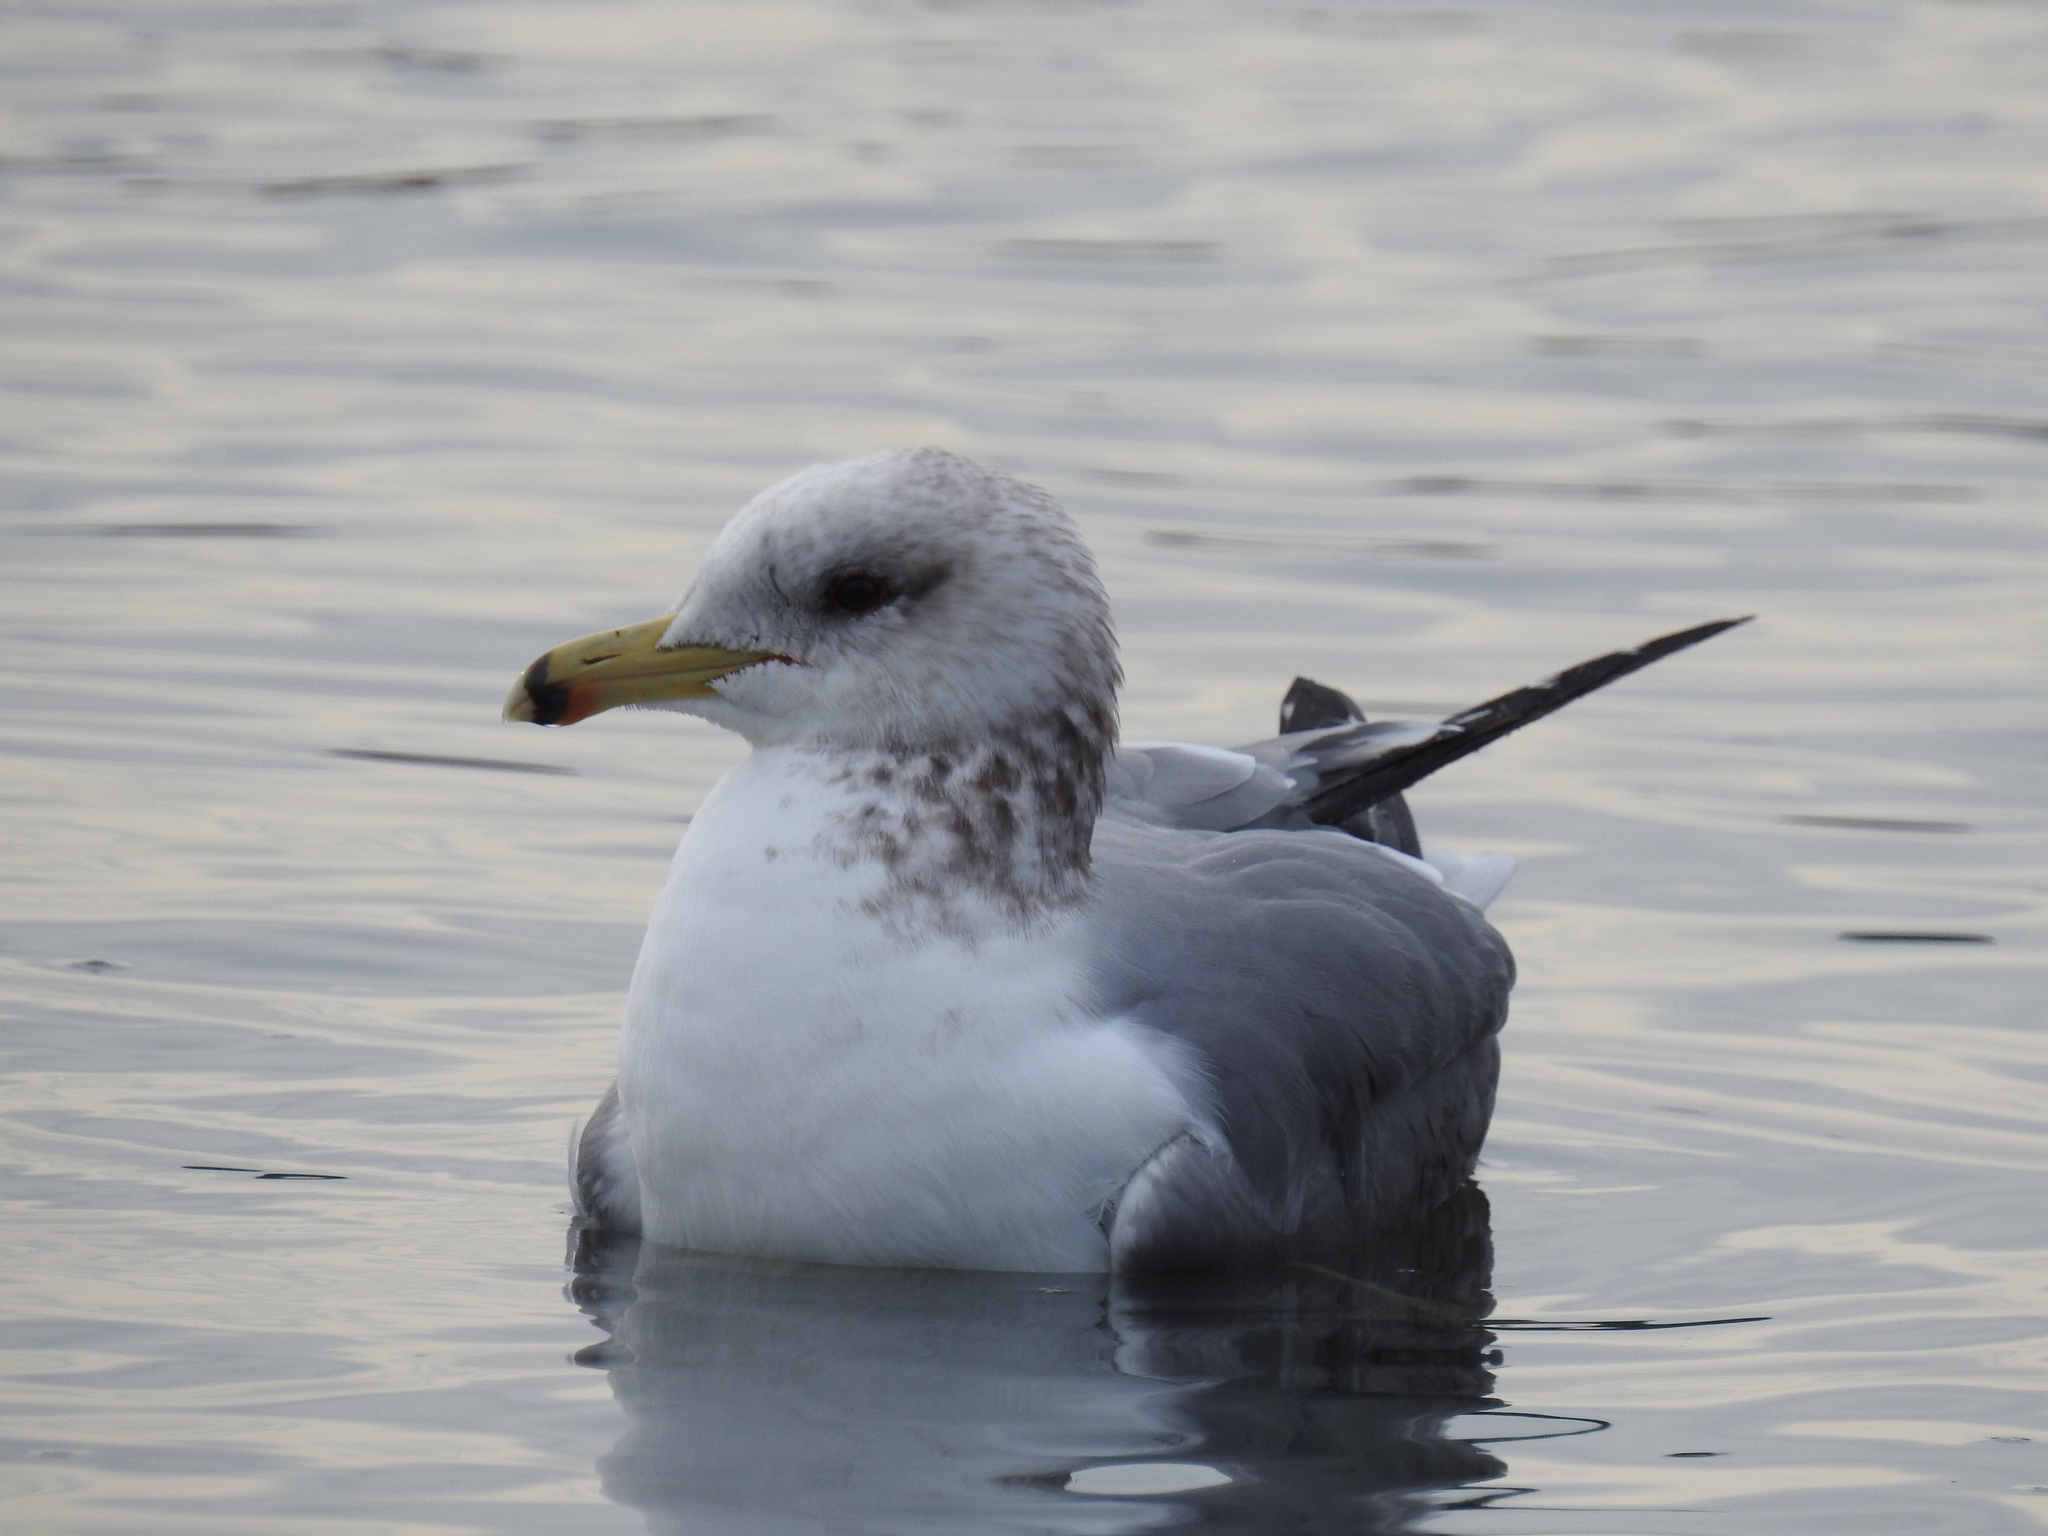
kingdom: Animalia
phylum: Chordata
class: Aves
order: Charadriiformes
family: Laridae
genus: Larus
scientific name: Larus californicus
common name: California gull
